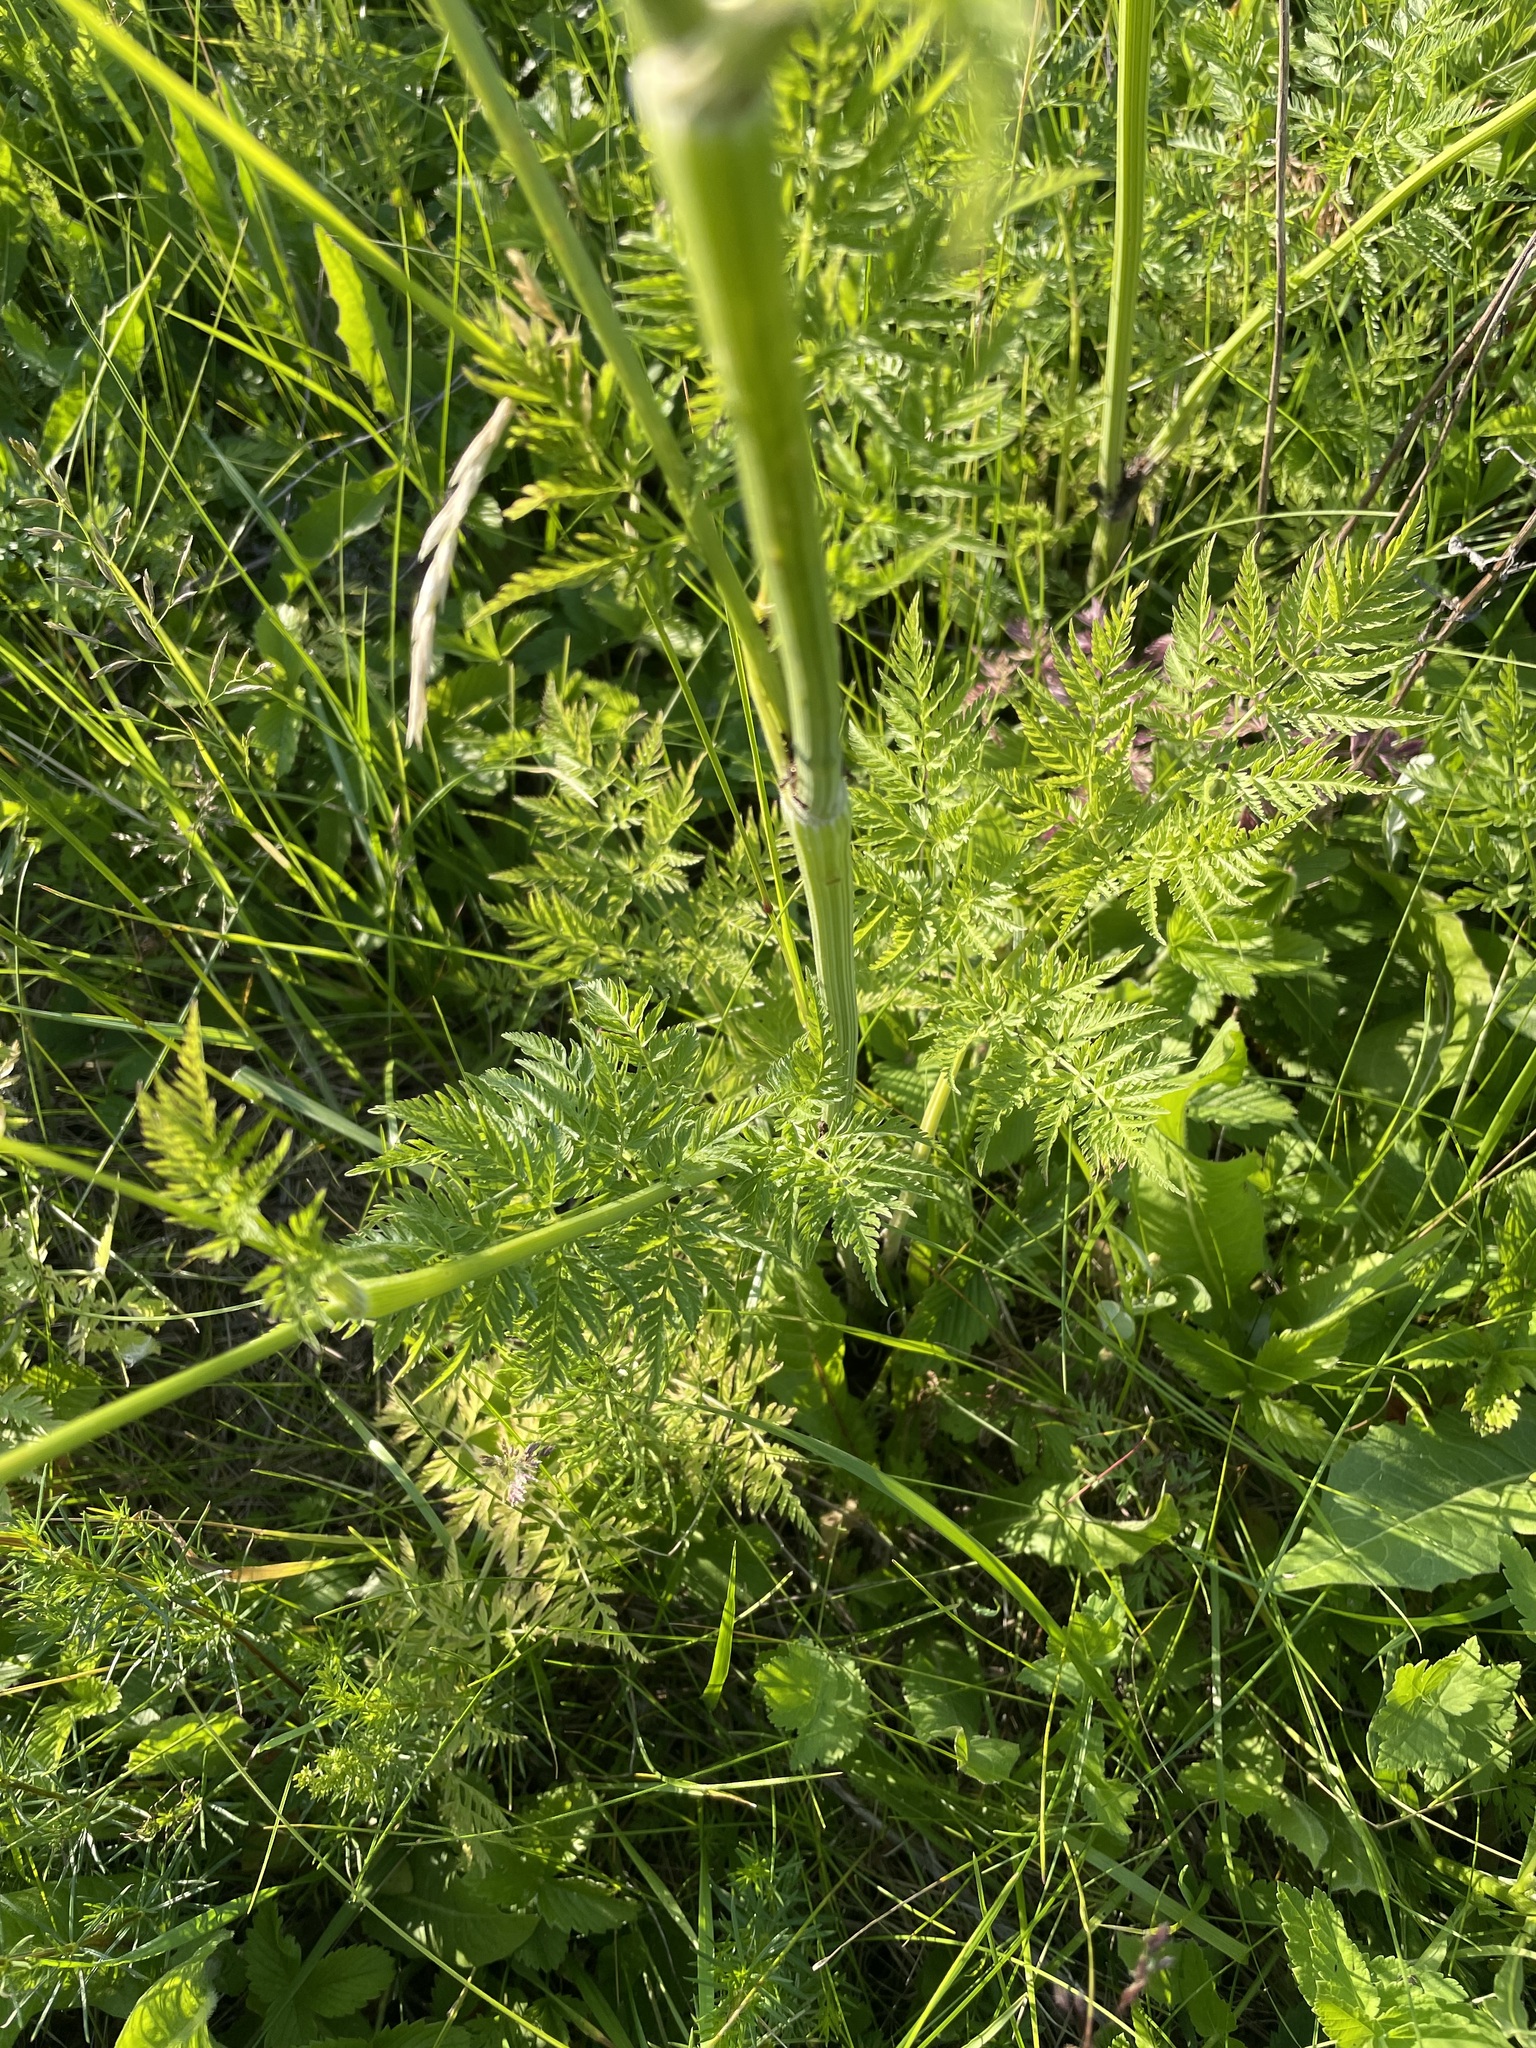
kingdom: Plantae
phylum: Tracheophyta
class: Magnoliopsida
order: Apiales
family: Apiaceae
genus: Anthriscus
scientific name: Anthriscus sylvestris
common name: Cow parsley
